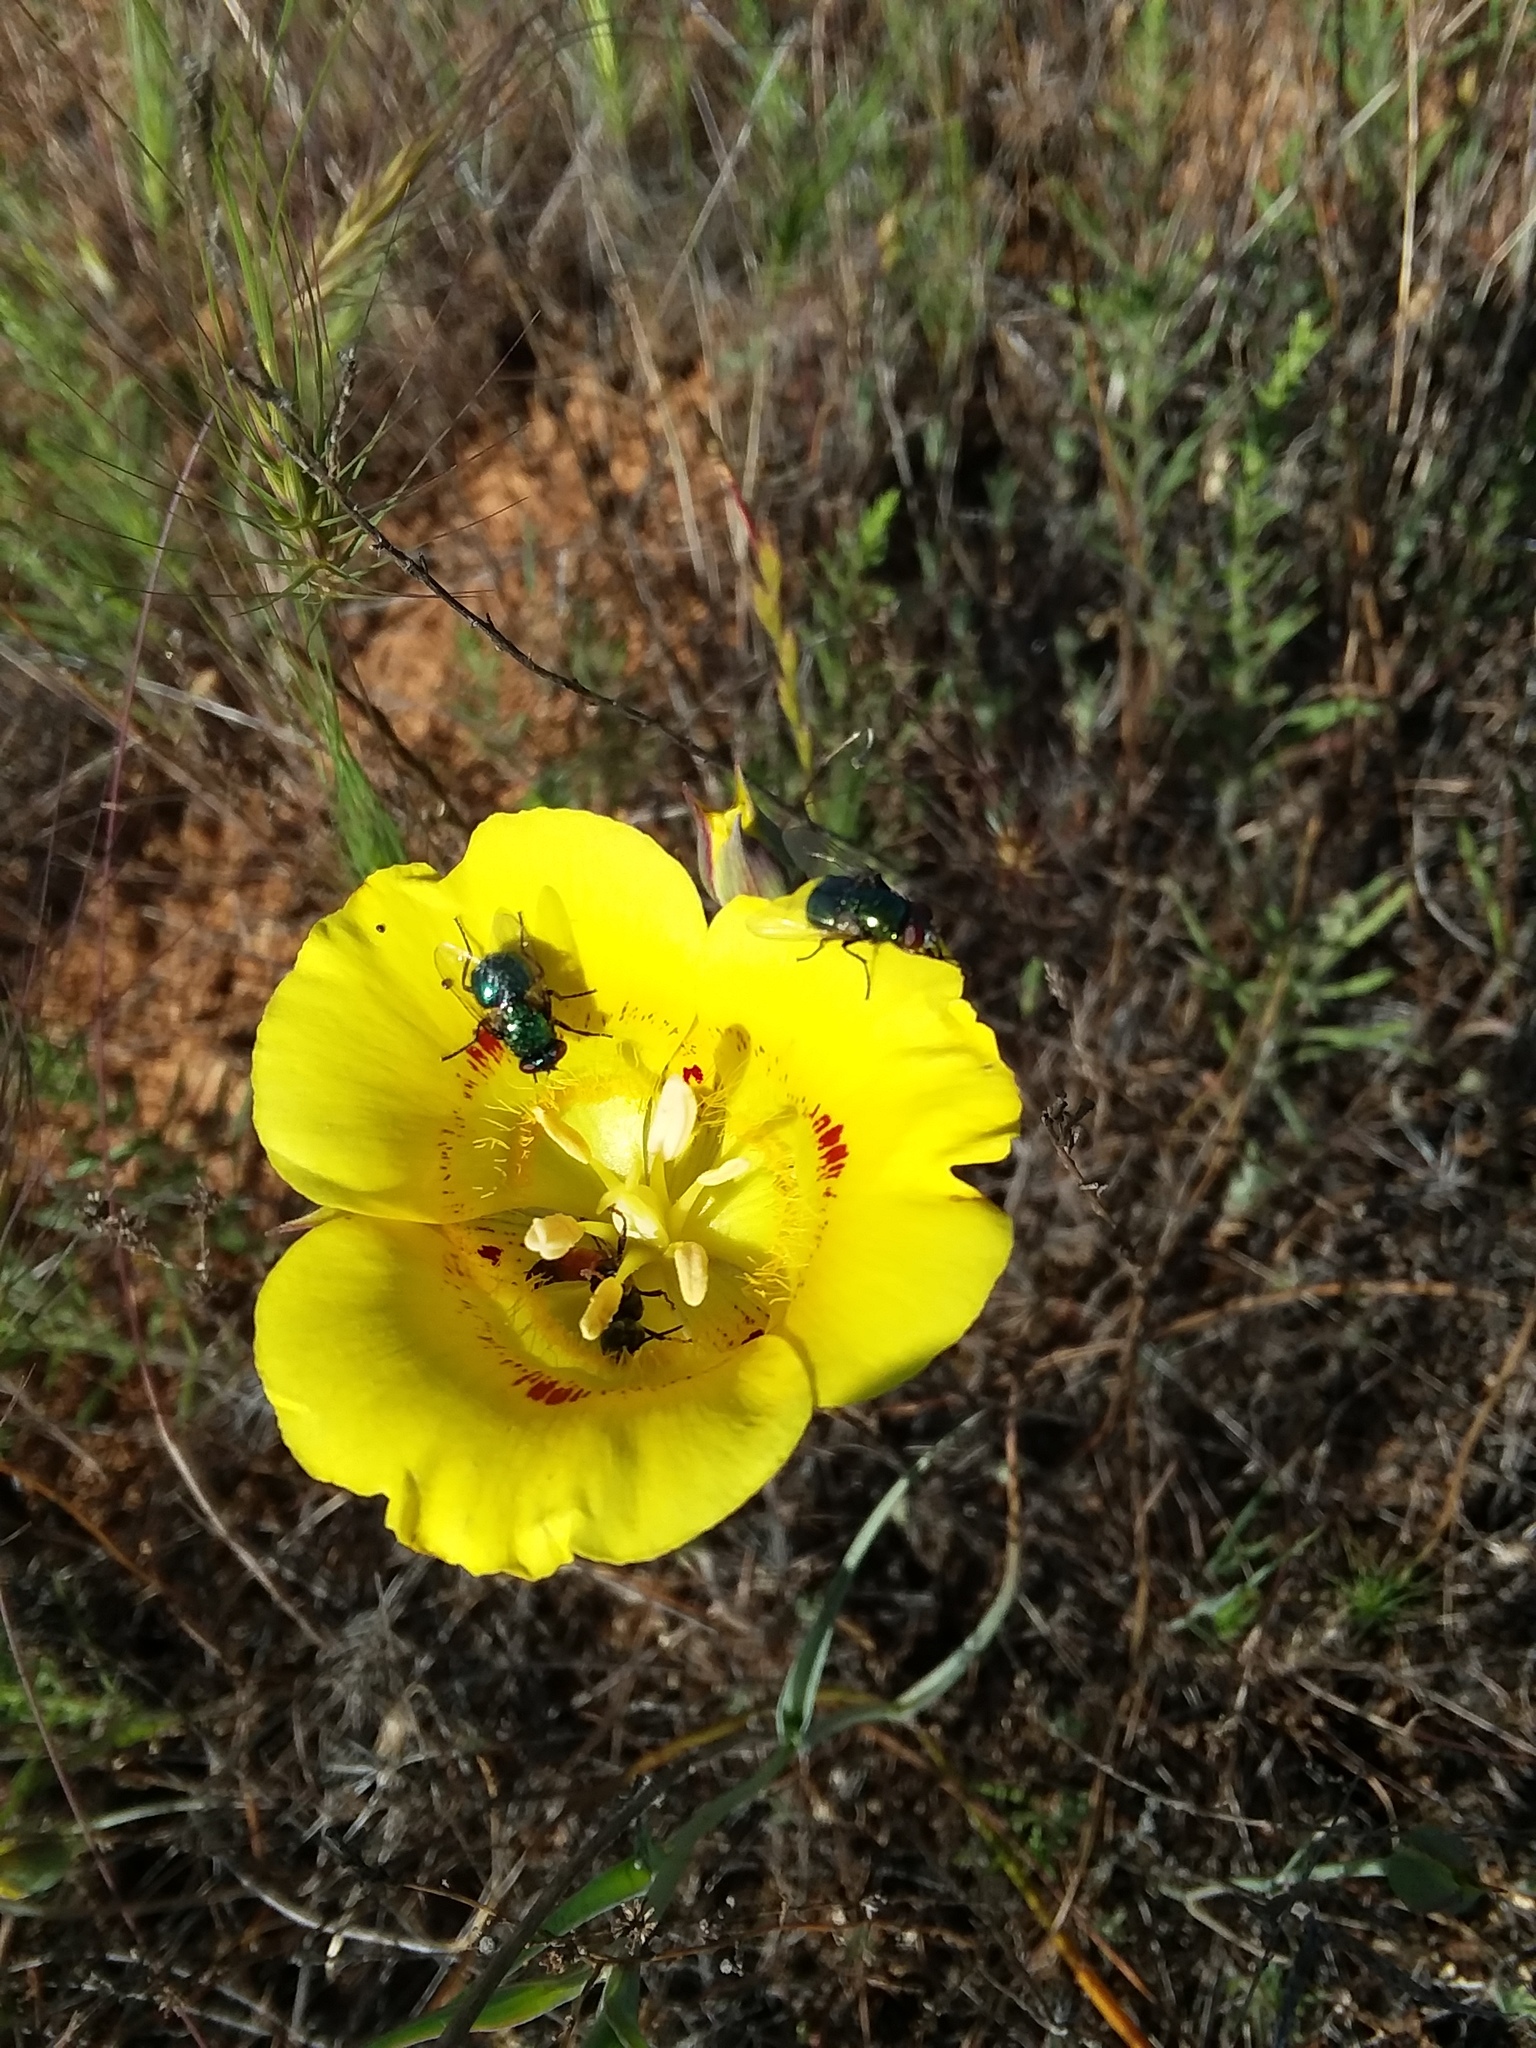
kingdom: Plantae
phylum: Tracheophyta
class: Liliopsida
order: Liliales
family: Liliaceae
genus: Calochortus
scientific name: Calochortus luteus
